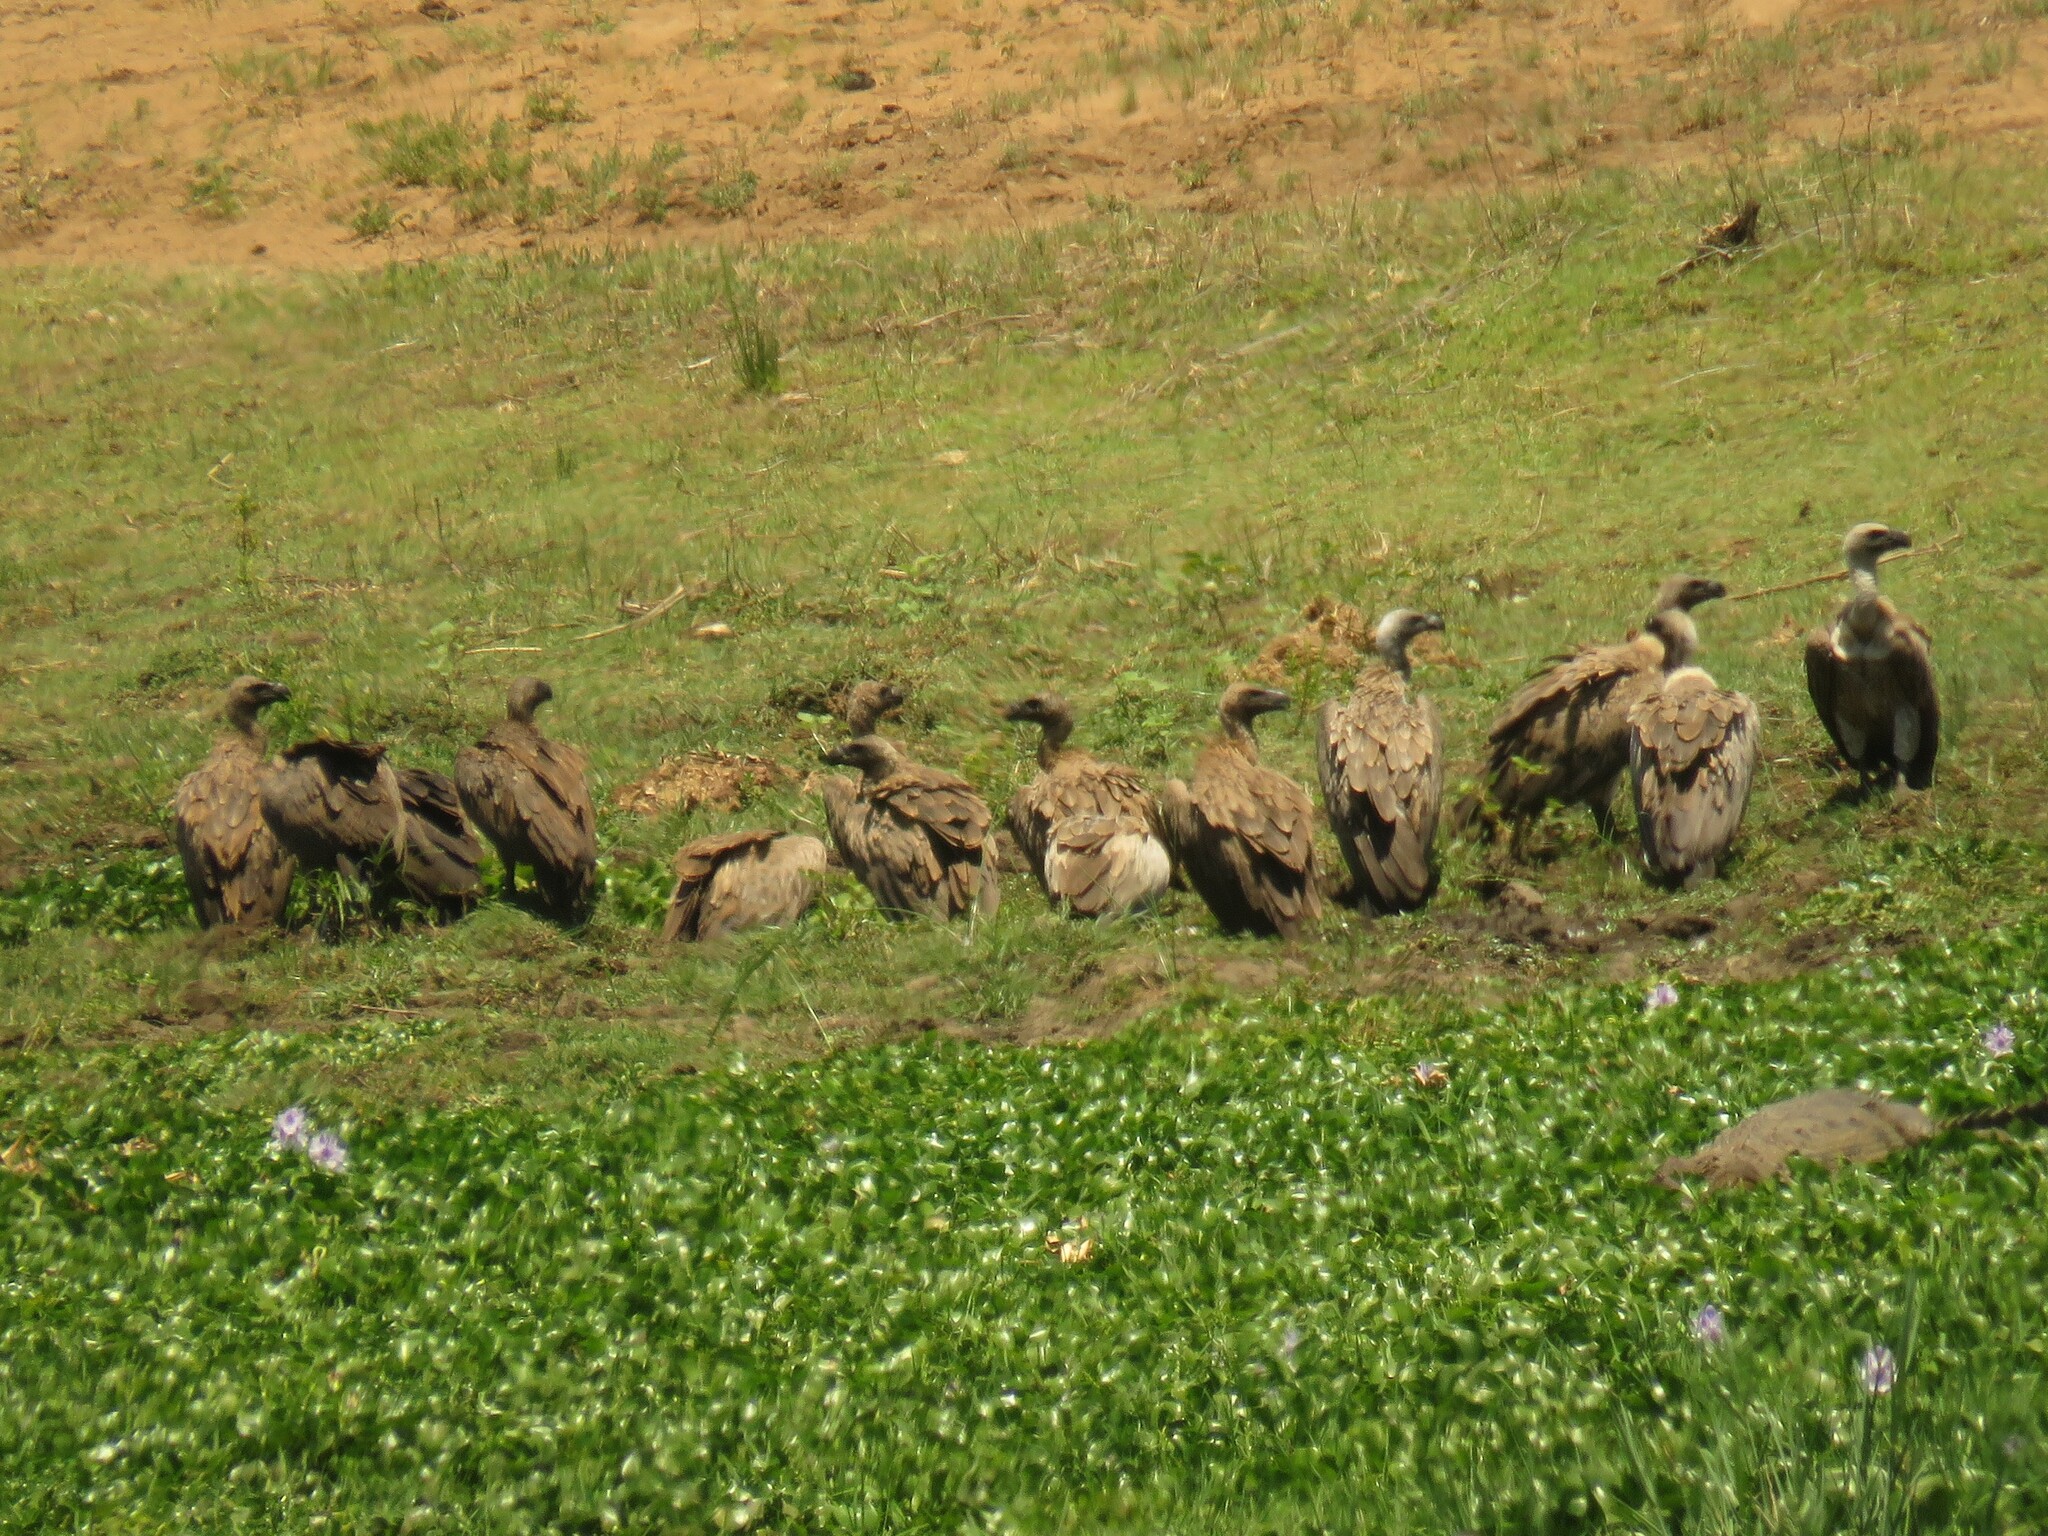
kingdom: Animalia
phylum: Chordata
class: Aves
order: Accipitriformes
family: Accipitridae
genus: Gyps
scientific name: Gyps africanus
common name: White-backed vulture
